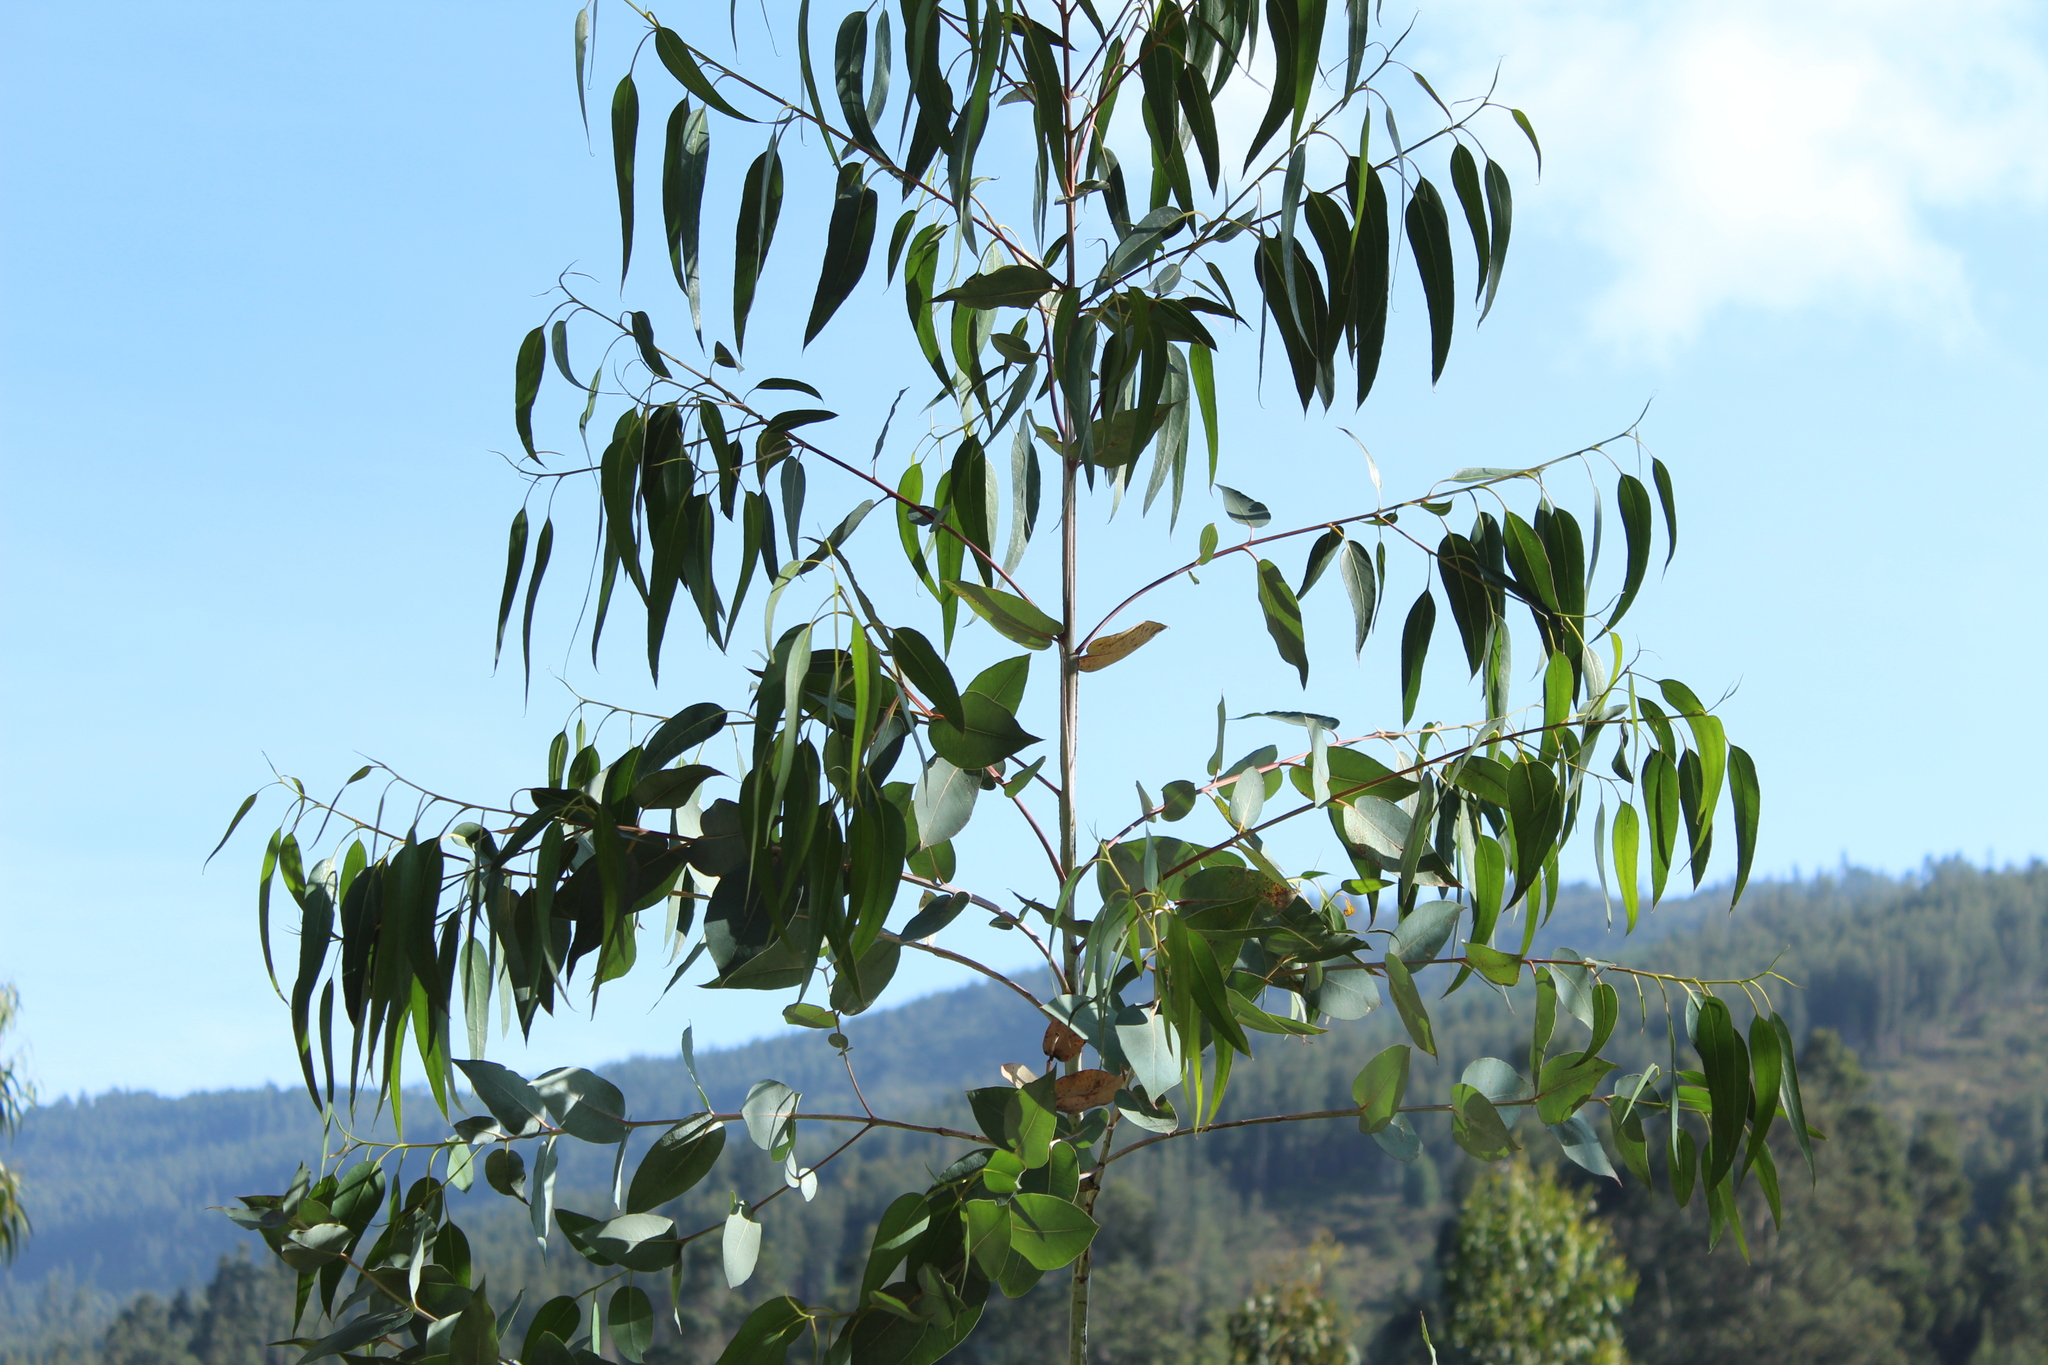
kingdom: Plantae
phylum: Tracheophyta
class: Magnoliopsida
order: Myrtales
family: Myrtaceae
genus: Eucalyptus
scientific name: Eucalyptus globulus
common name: Southern blue-gum
